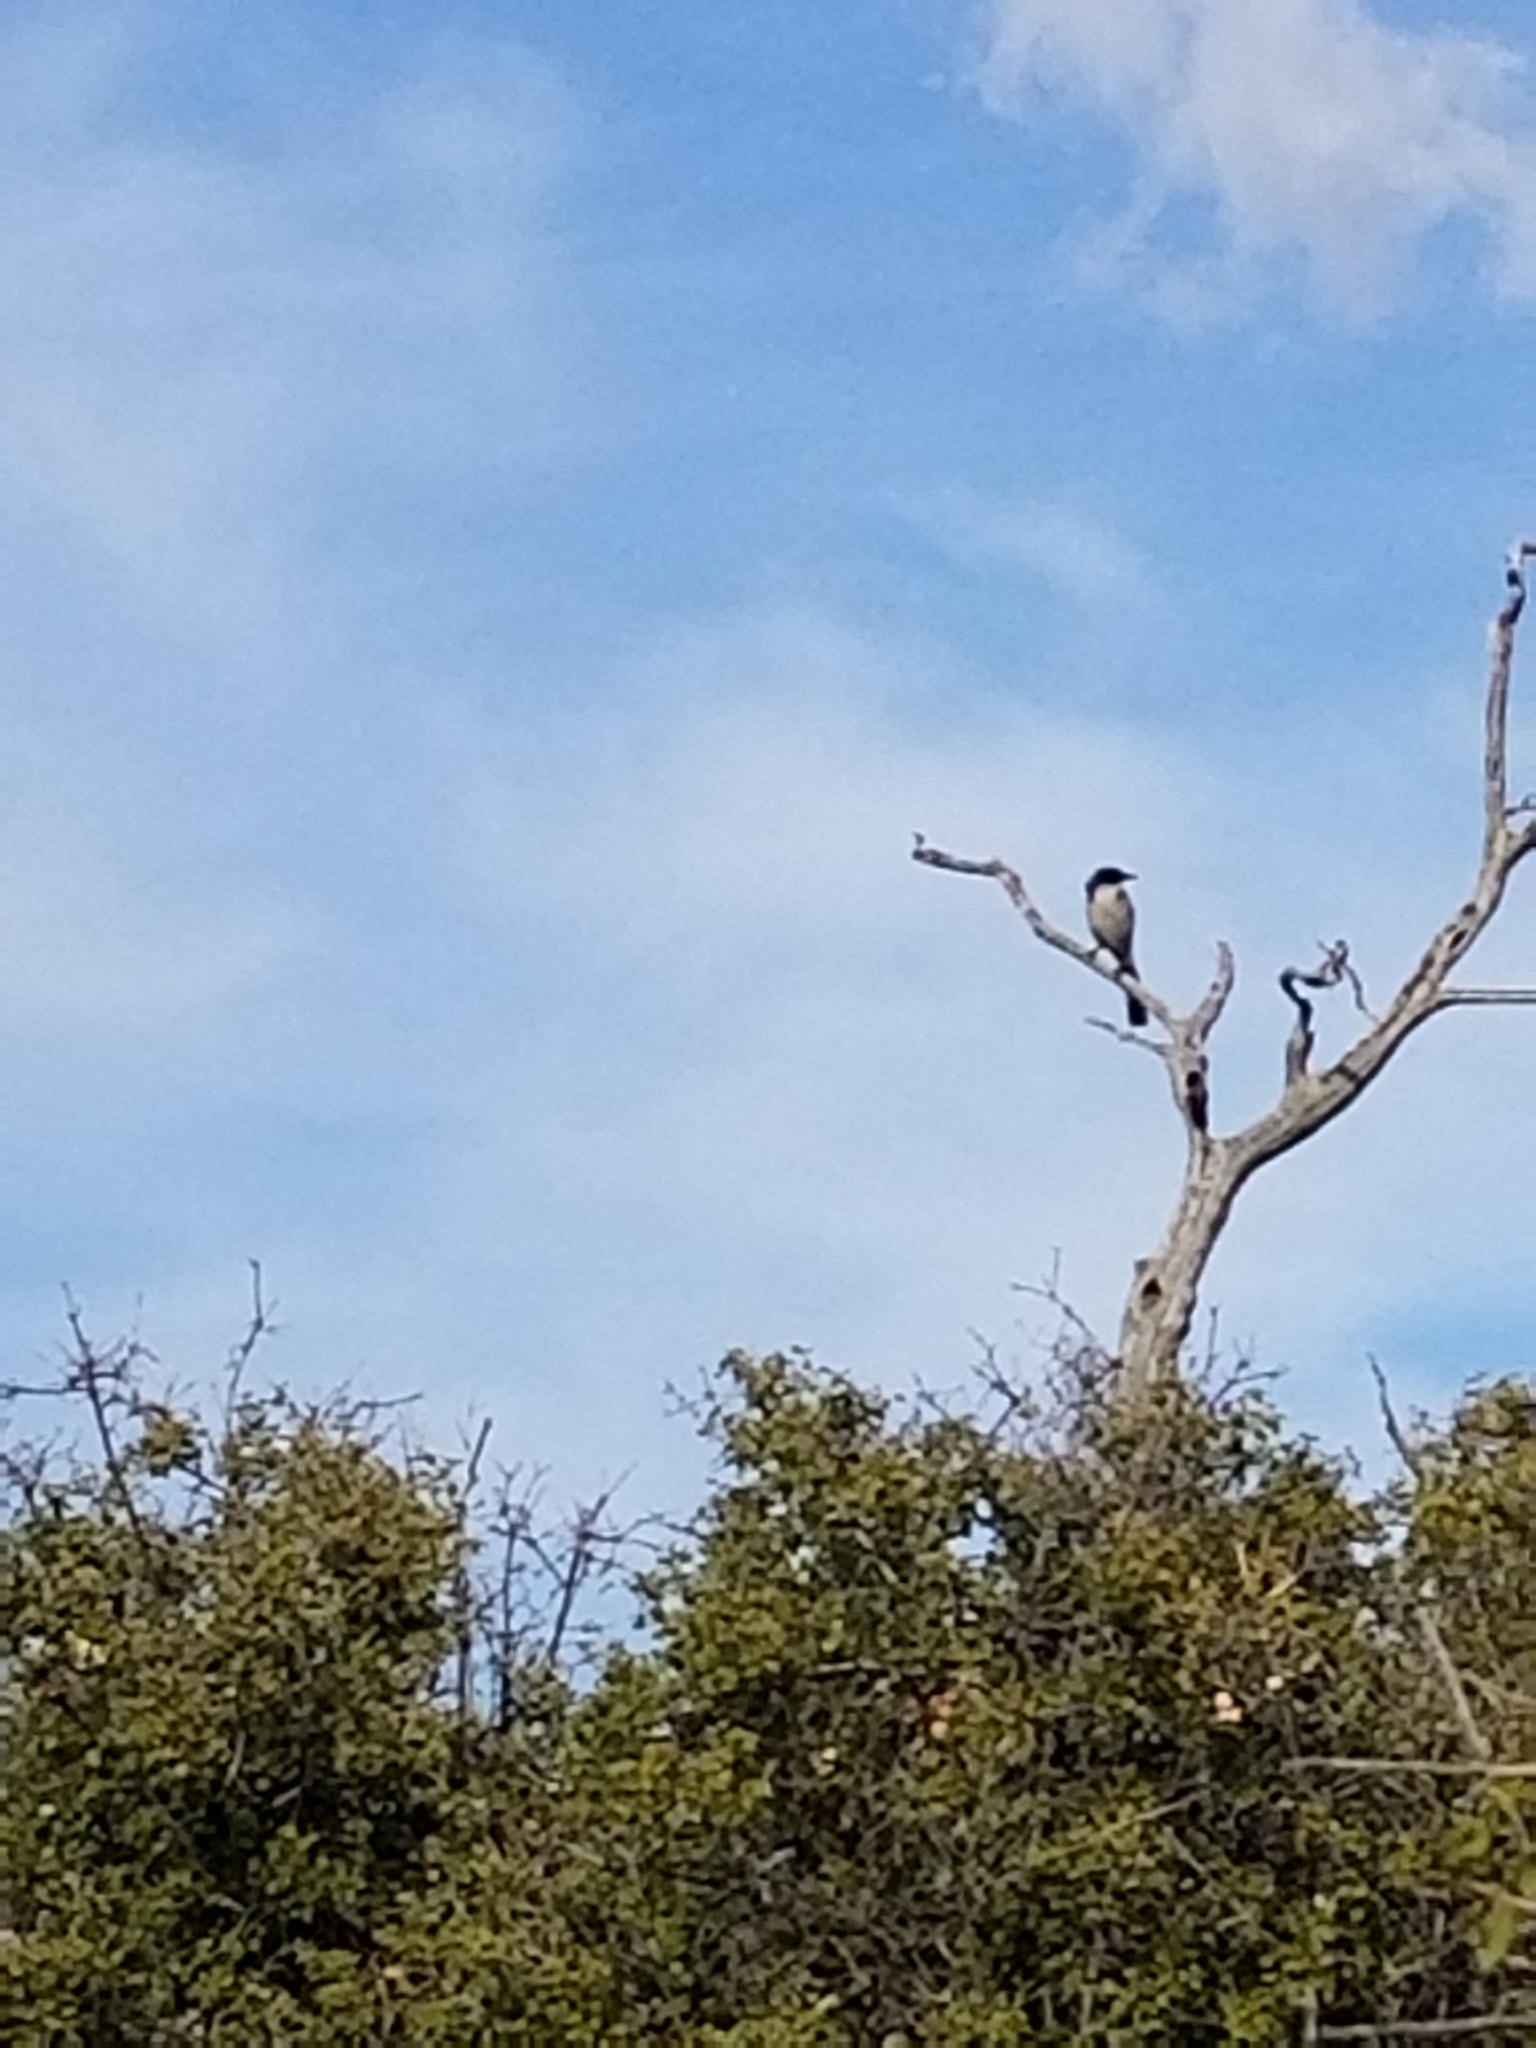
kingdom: Animalia
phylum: Chordata
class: Aves
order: Passeriformes
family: Corvidae
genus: Aphelocoma
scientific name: Aphelocoma californica
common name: California scrub-jay
